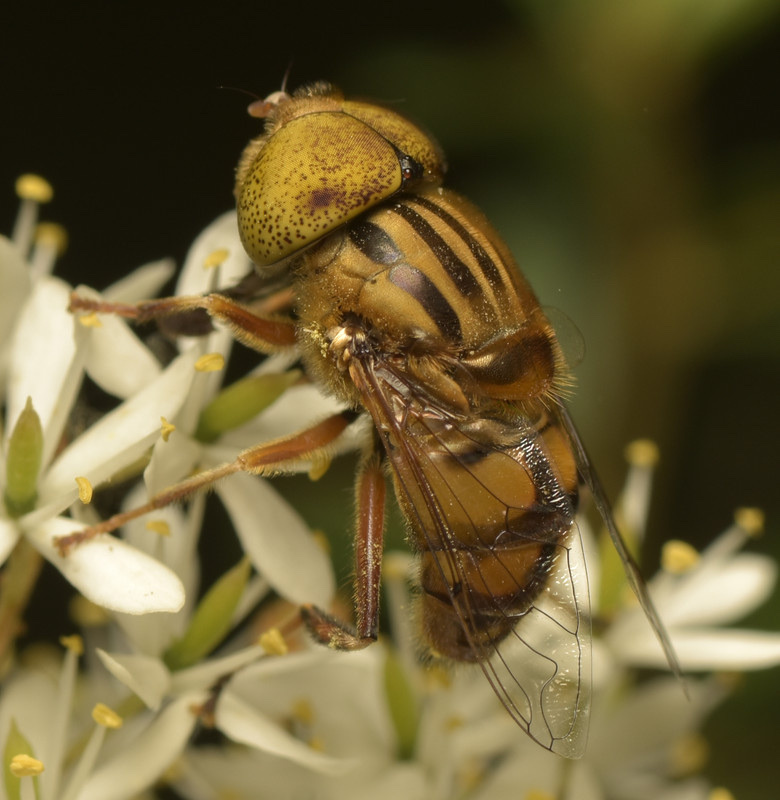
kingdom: Animalia
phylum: Arthropoda
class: Insecta
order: Diptera
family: Syrphidae
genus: Eristalinus
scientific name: Eristalinus punctulatus
